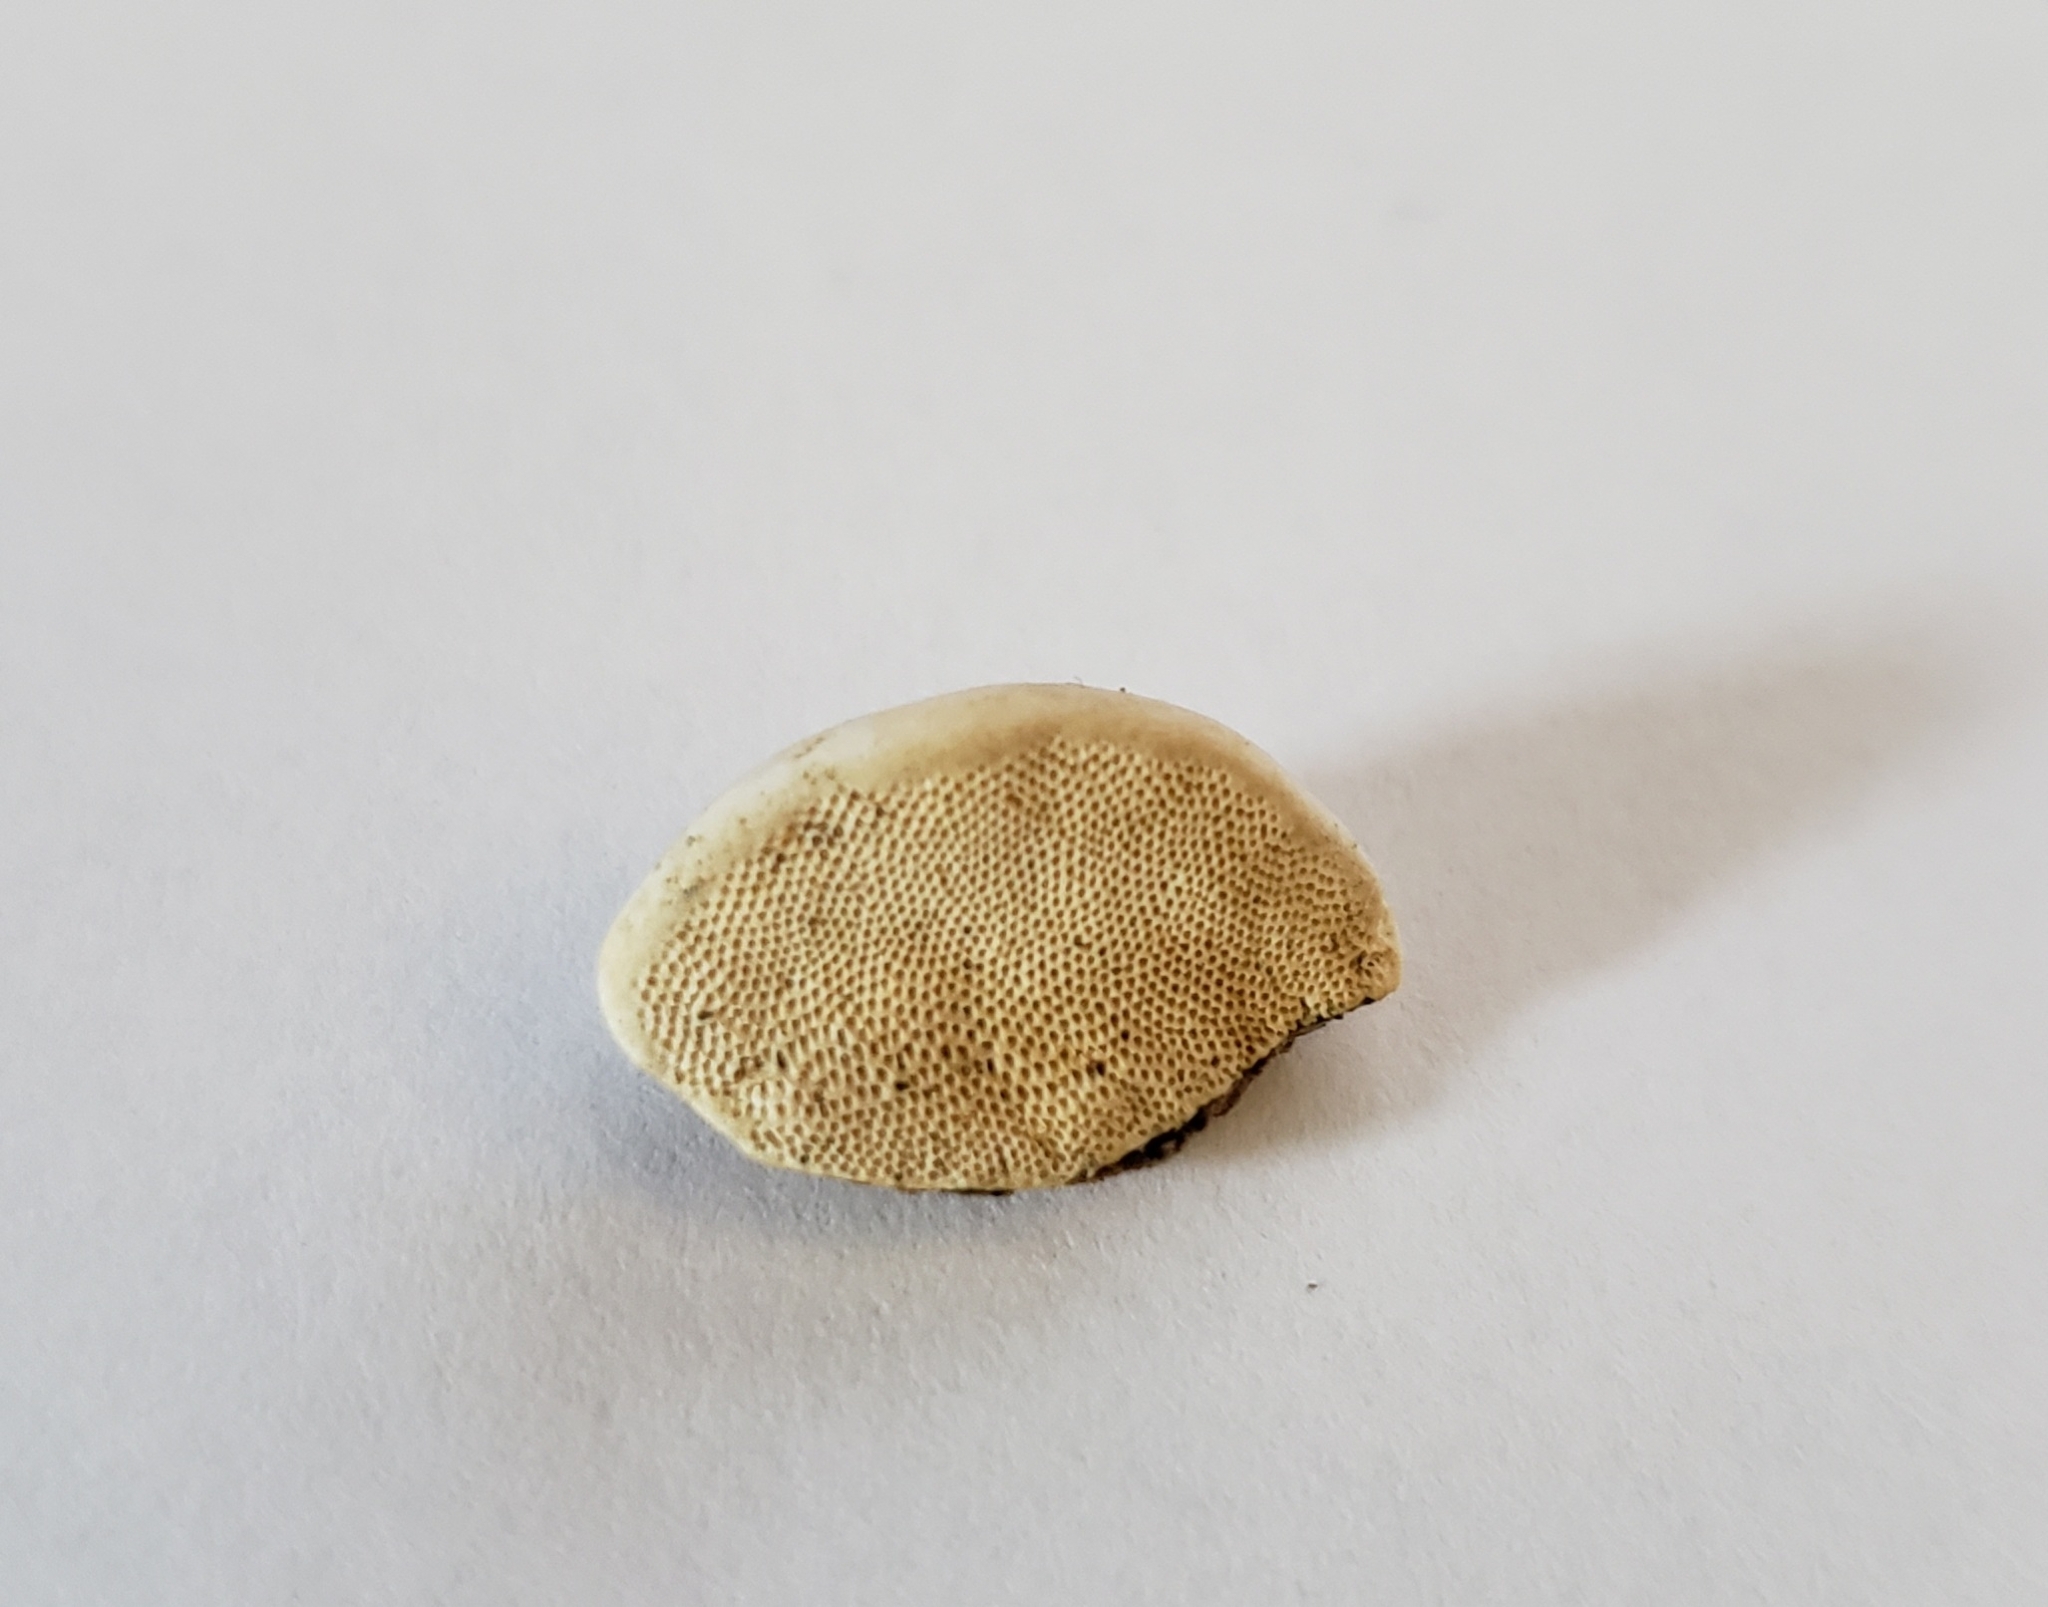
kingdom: Fungi
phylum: Basidiomycota
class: Agaricomycetes
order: Polyporales
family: Polyporaceae
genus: Perenniporia
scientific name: Perenniporia ohiensis
